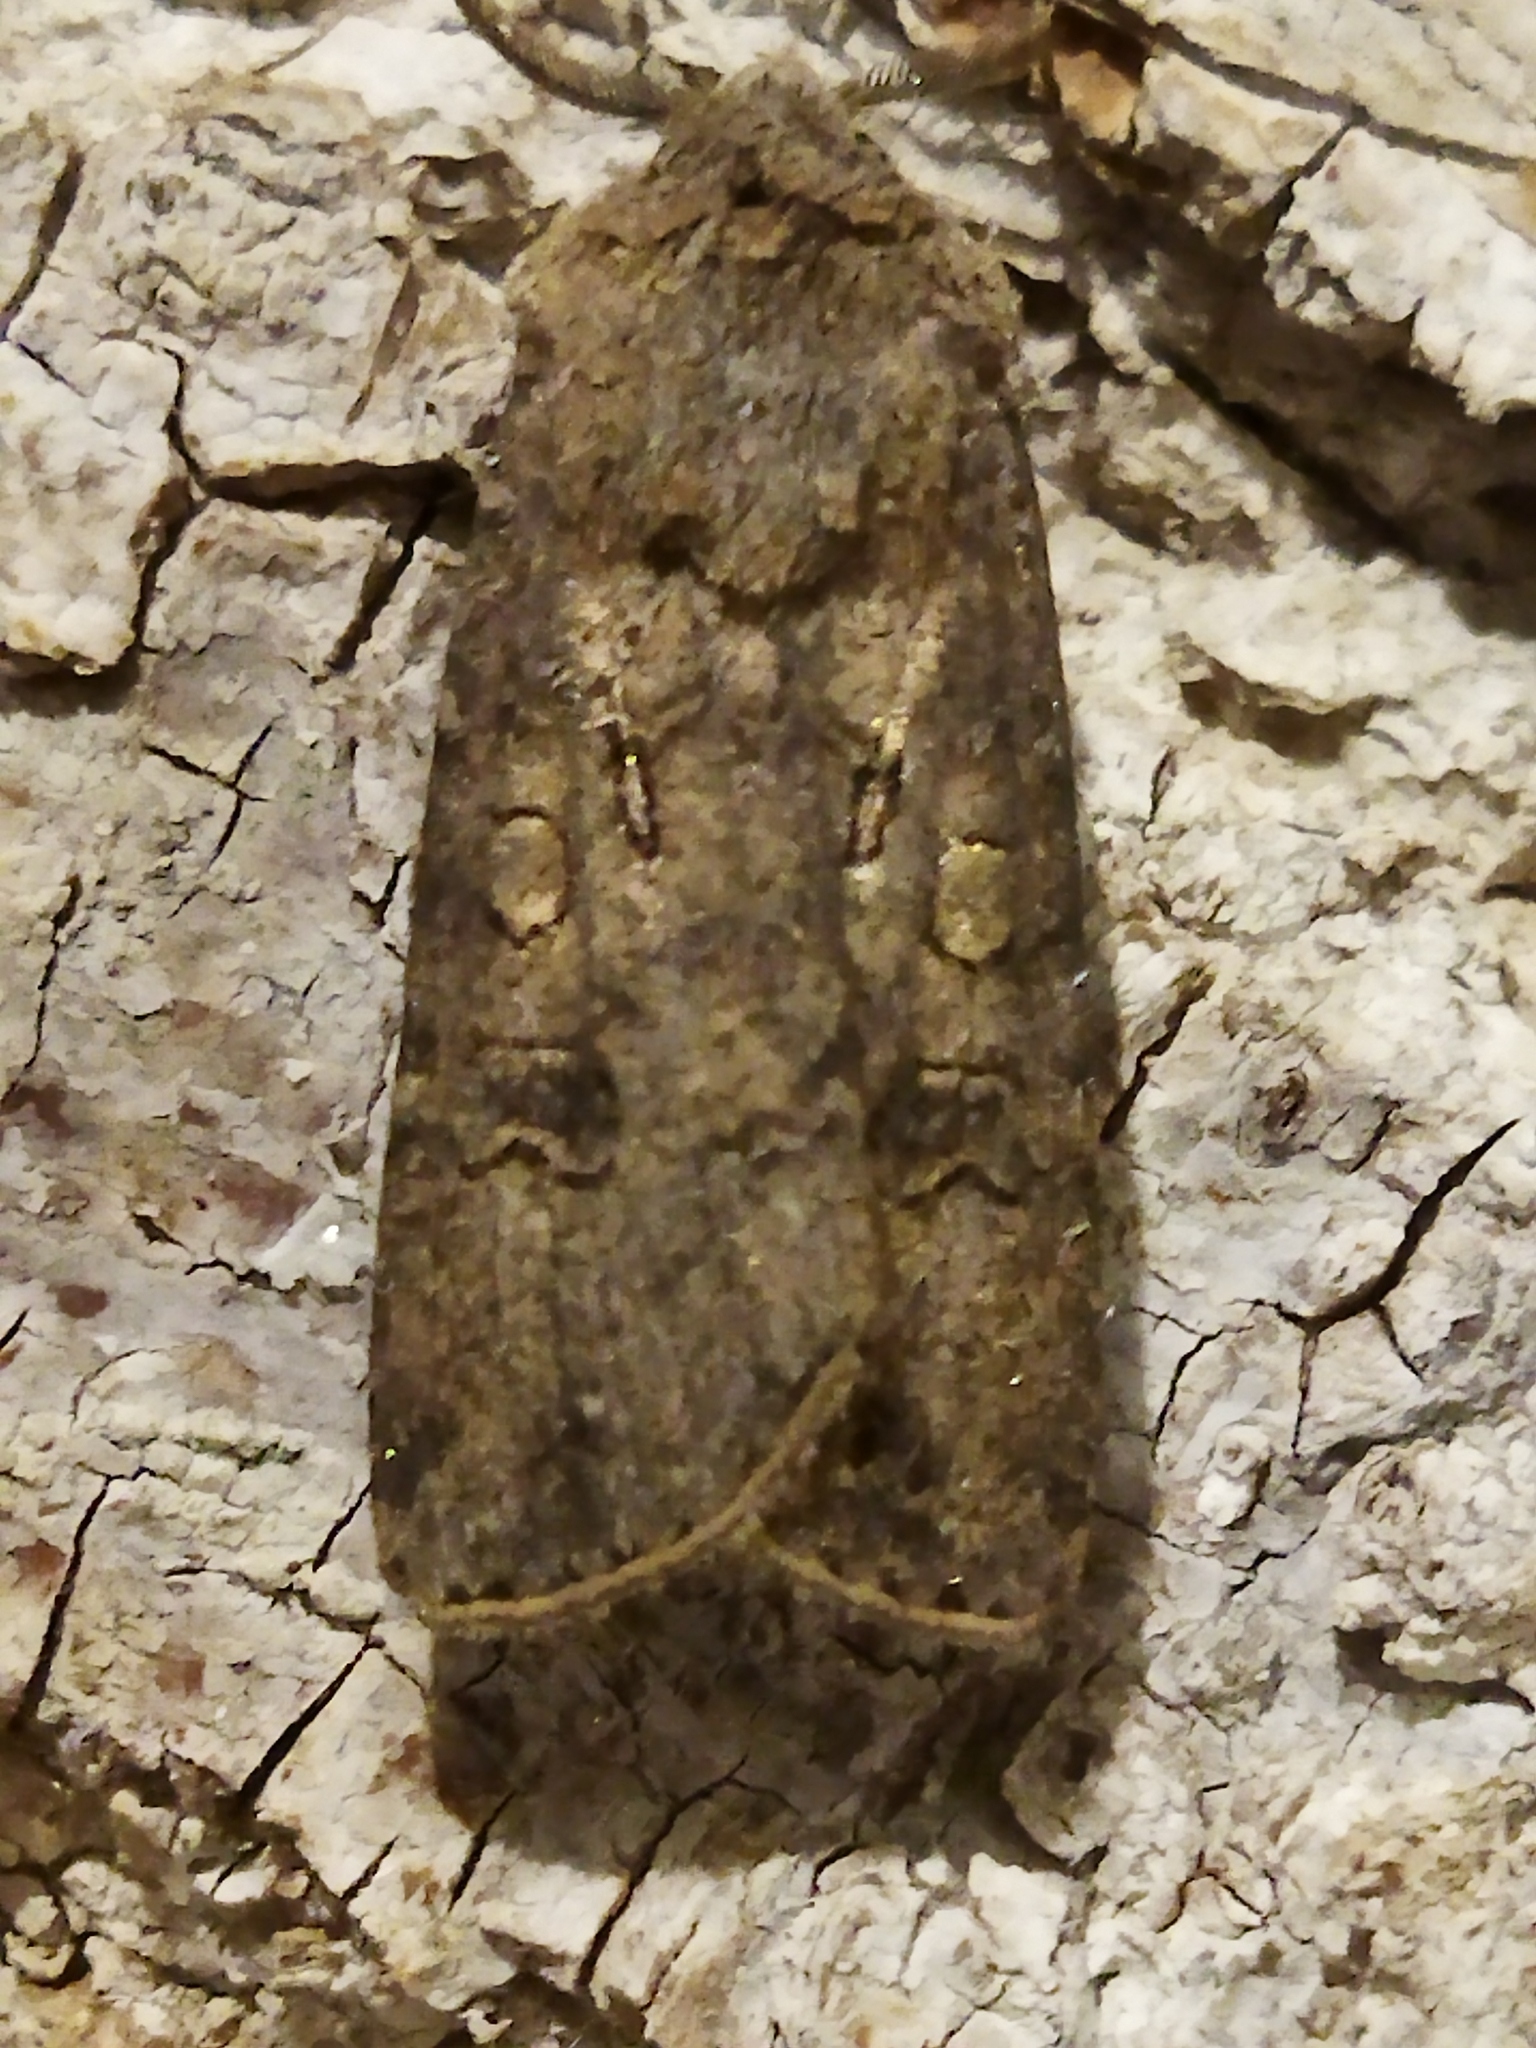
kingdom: Animalia
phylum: Arthropoda
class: Insecta
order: Lepidoptera
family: Noctuidae
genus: Agrotis
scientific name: Agrotis segetum
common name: Turnip moth
